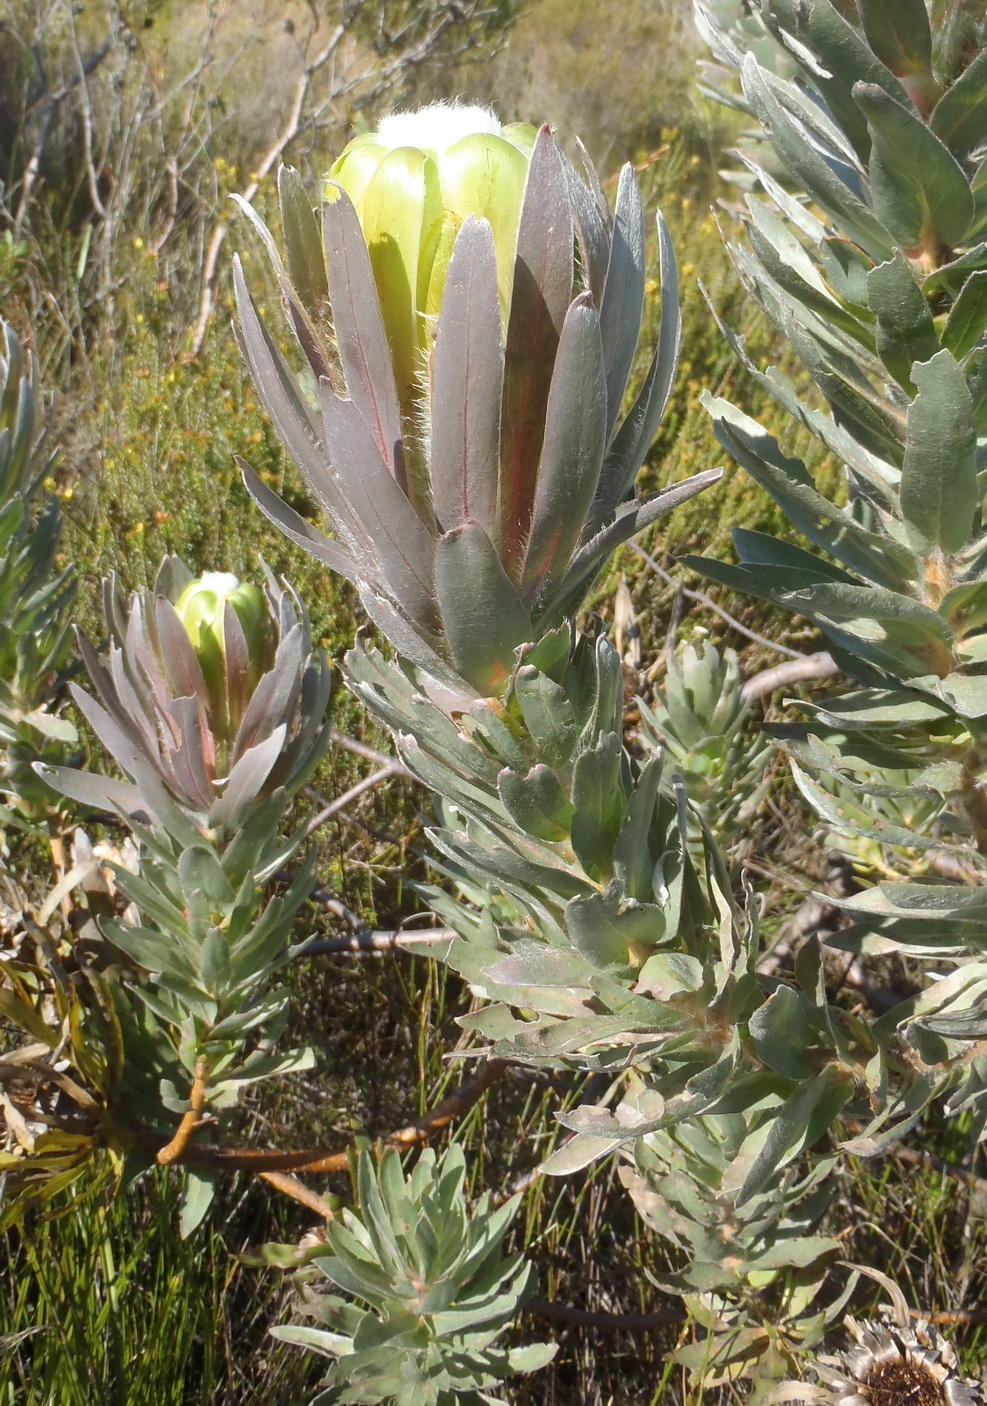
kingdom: Plantae
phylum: Tracheophyta
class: Magnoliopsida
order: Proteales
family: Proteaceae
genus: Protea
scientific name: Protea coronata
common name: Green sugarbush
